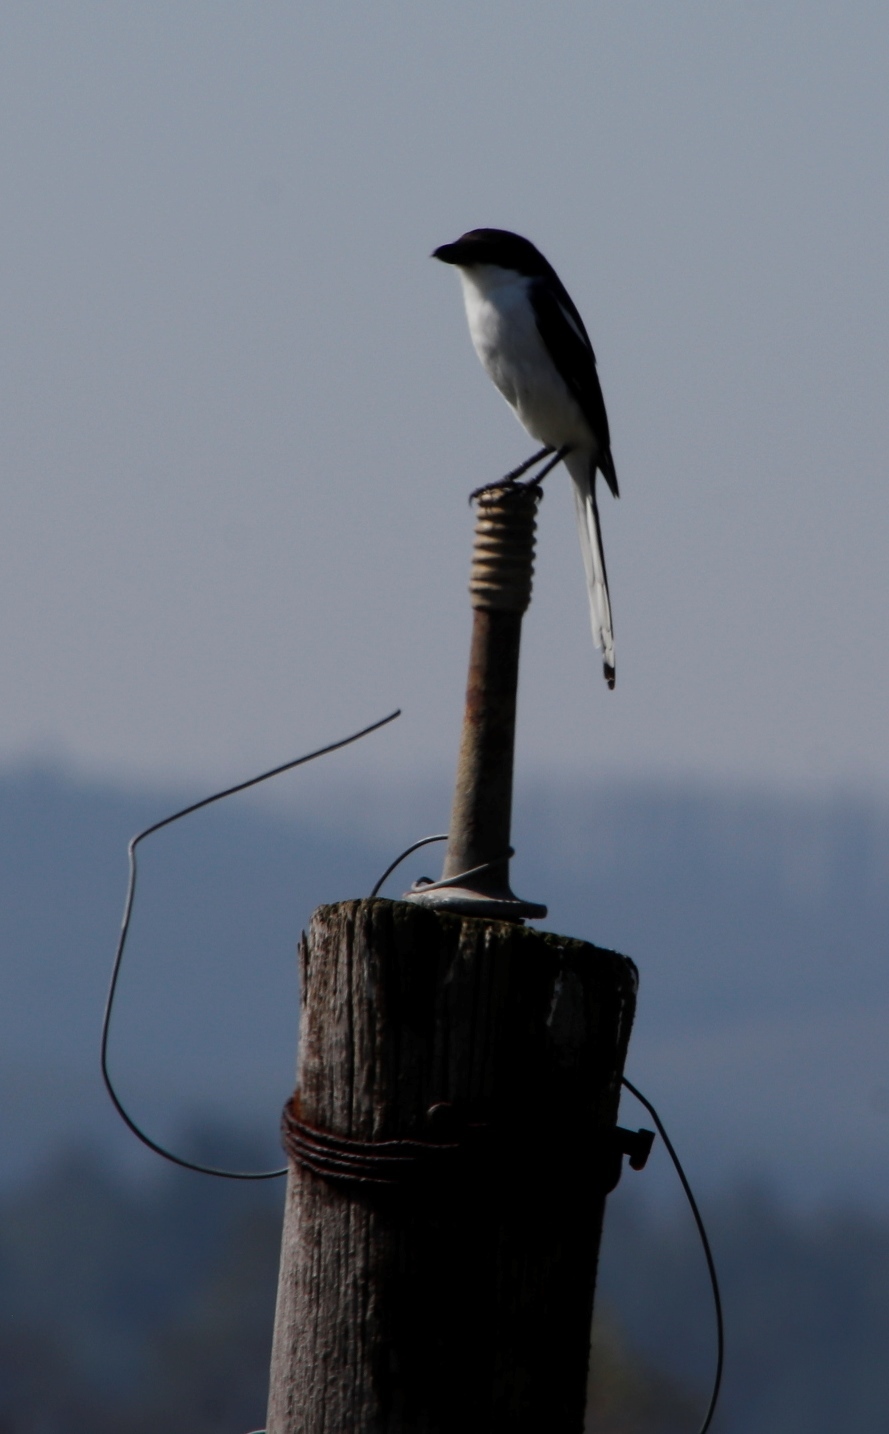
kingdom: Animalia
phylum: Chordata
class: Aves
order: Passeriformes
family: Laniidae
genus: Lanius
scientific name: Lanius collaris
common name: Southern fiscal
